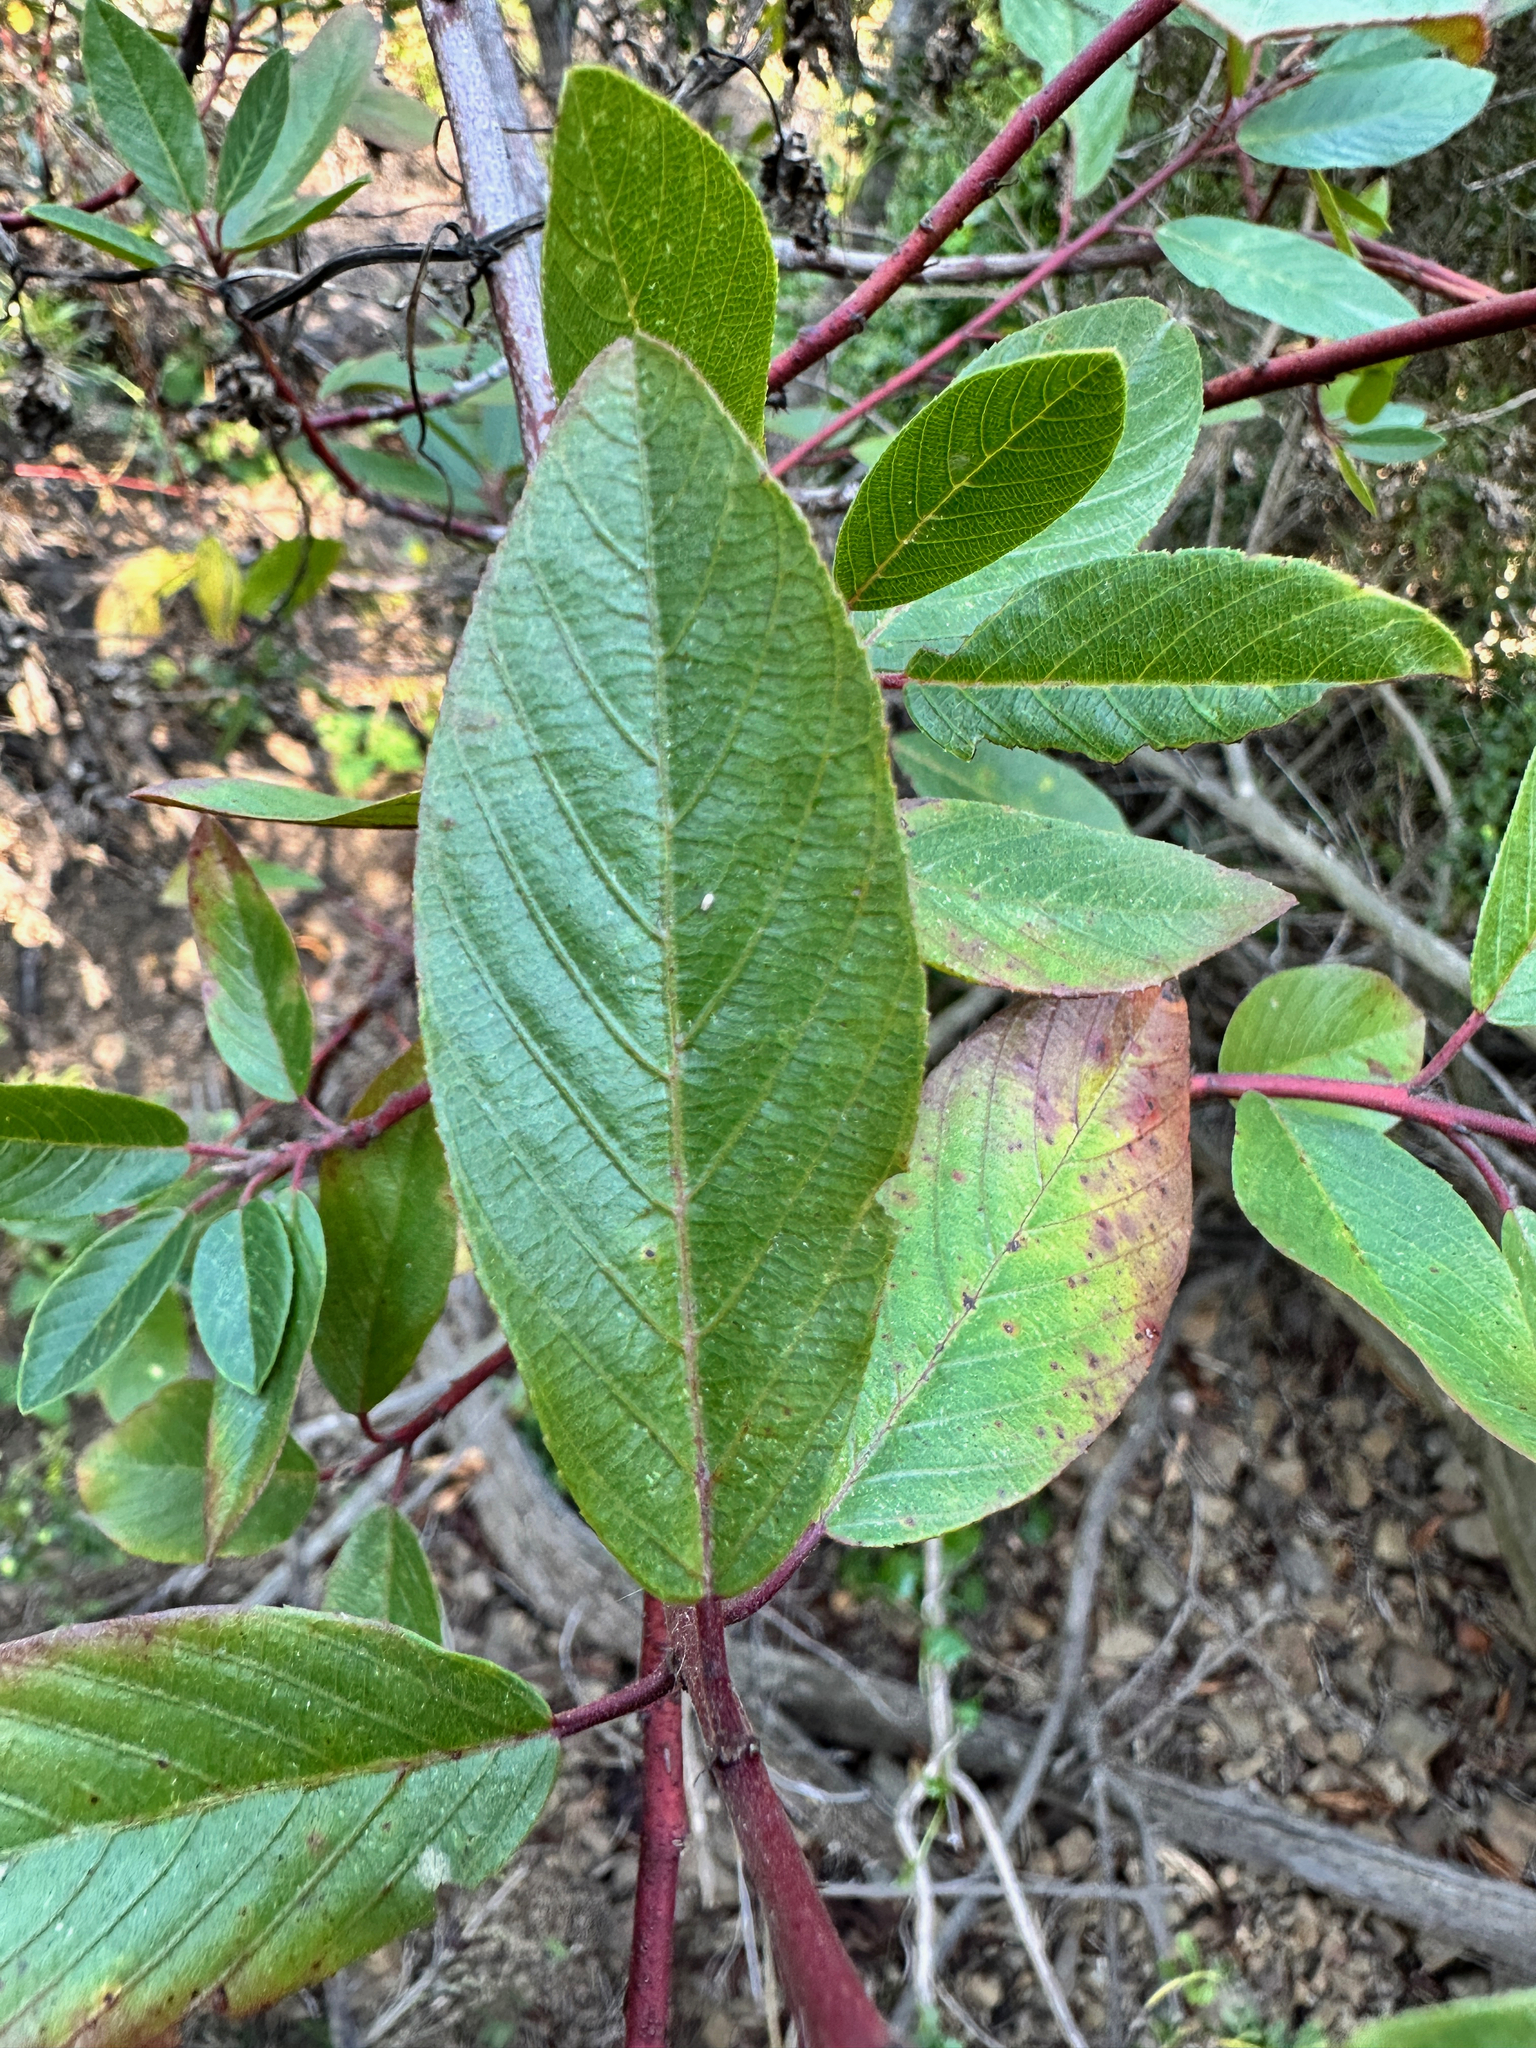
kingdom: Plantae
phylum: Tracheophyta
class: Magnoliopsida
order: Rosales
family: Rhamnaceae
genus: Frangula
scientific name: Frangula californica
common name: California buckthorn
